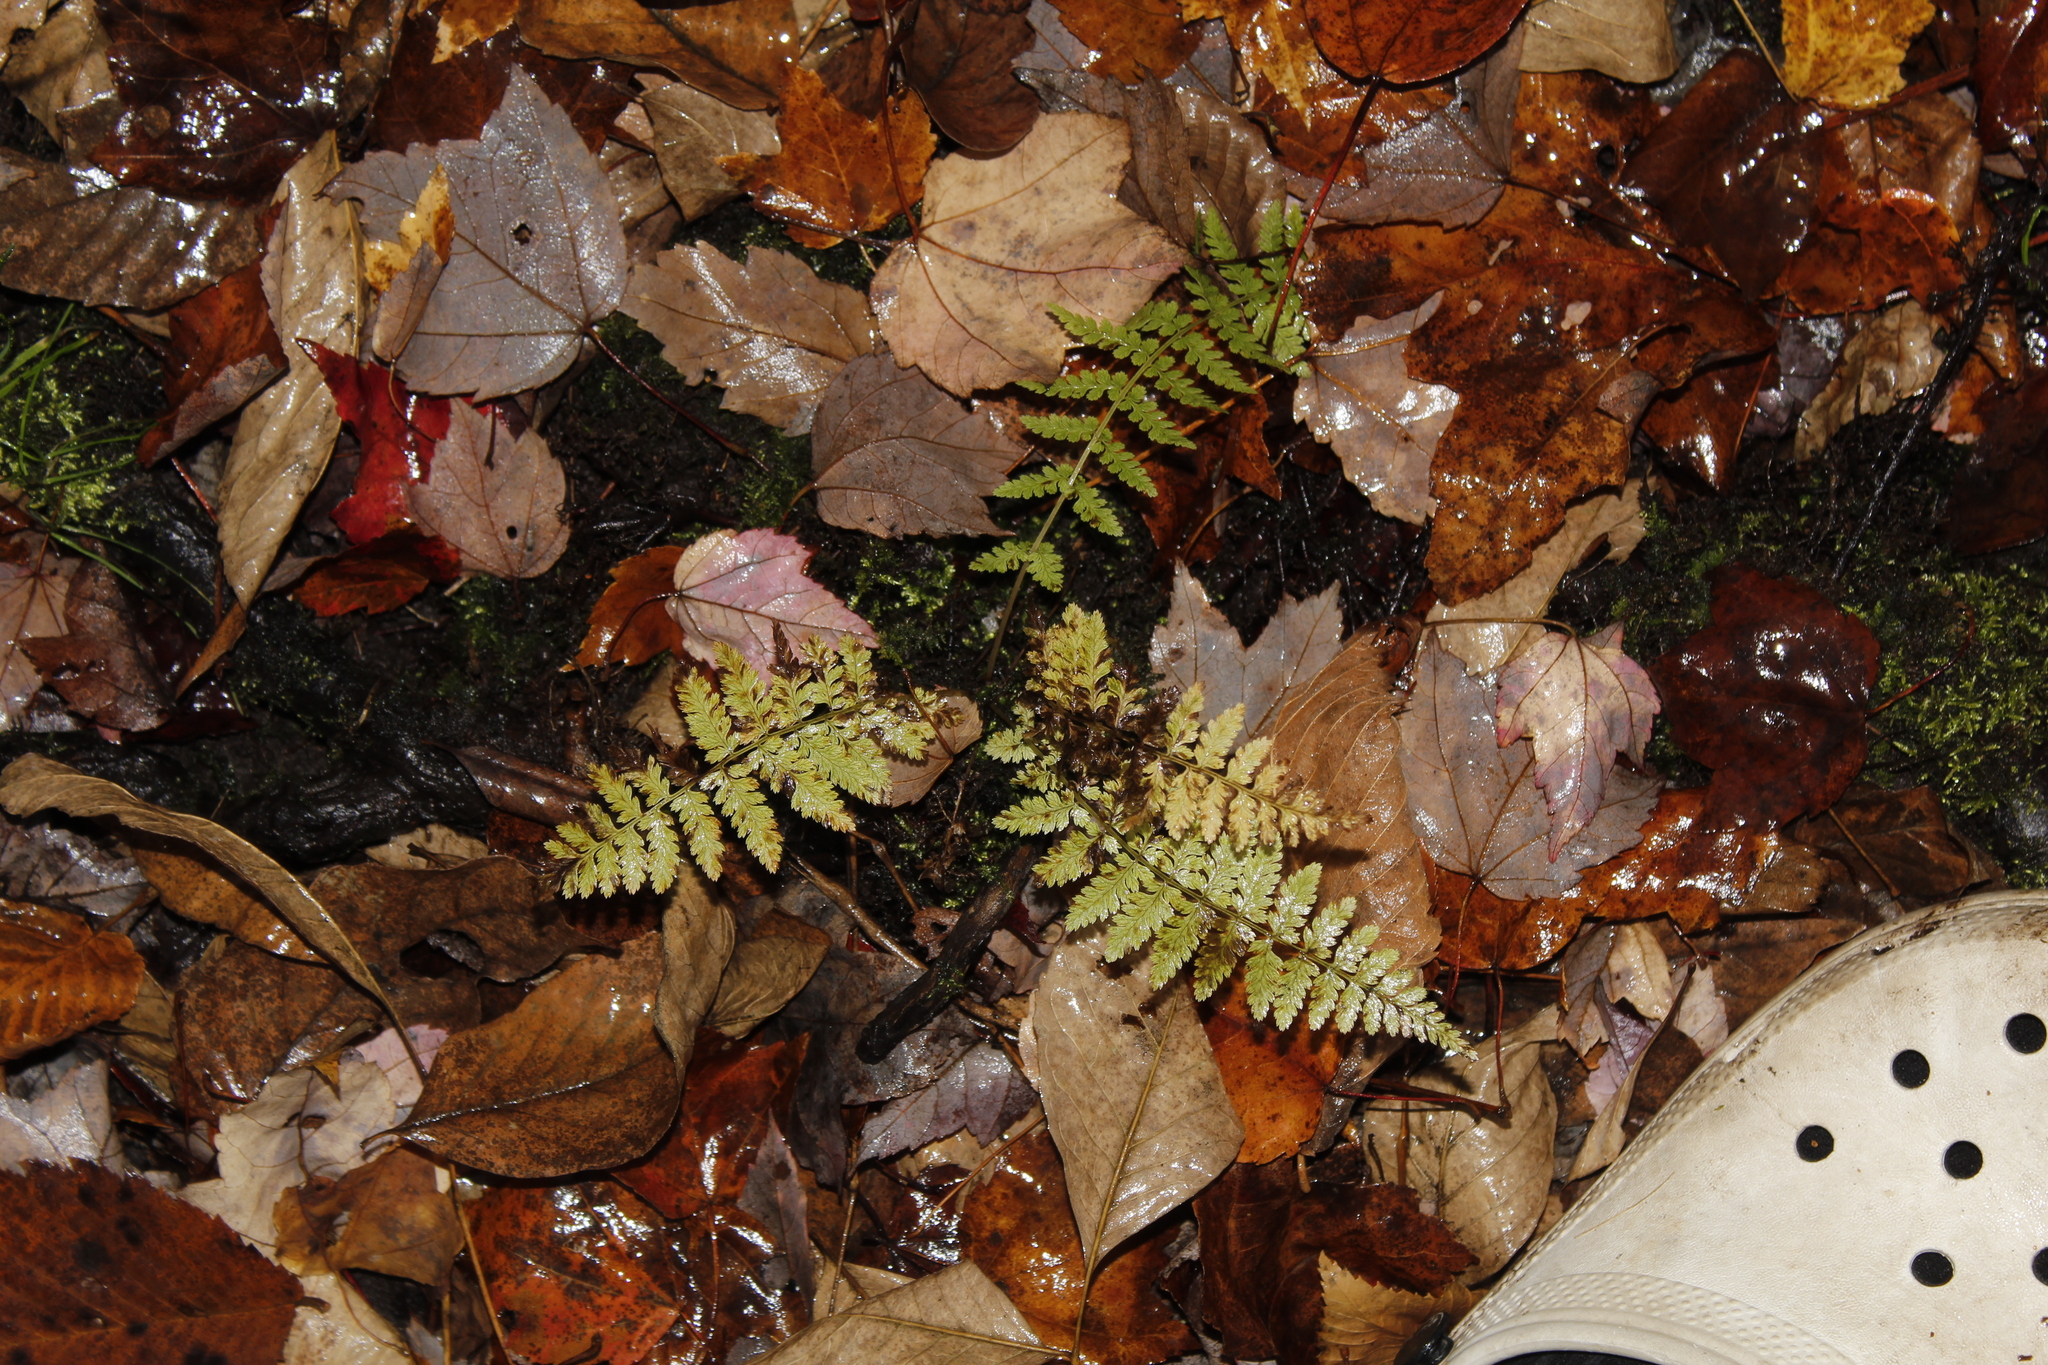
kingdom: Plantae
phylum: Tracheophyta
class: Polypodiopsida
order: Polypodiales
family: Athyriaceae
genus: Athyrium
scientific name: Athyrium angustum
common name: Northern lady fern
